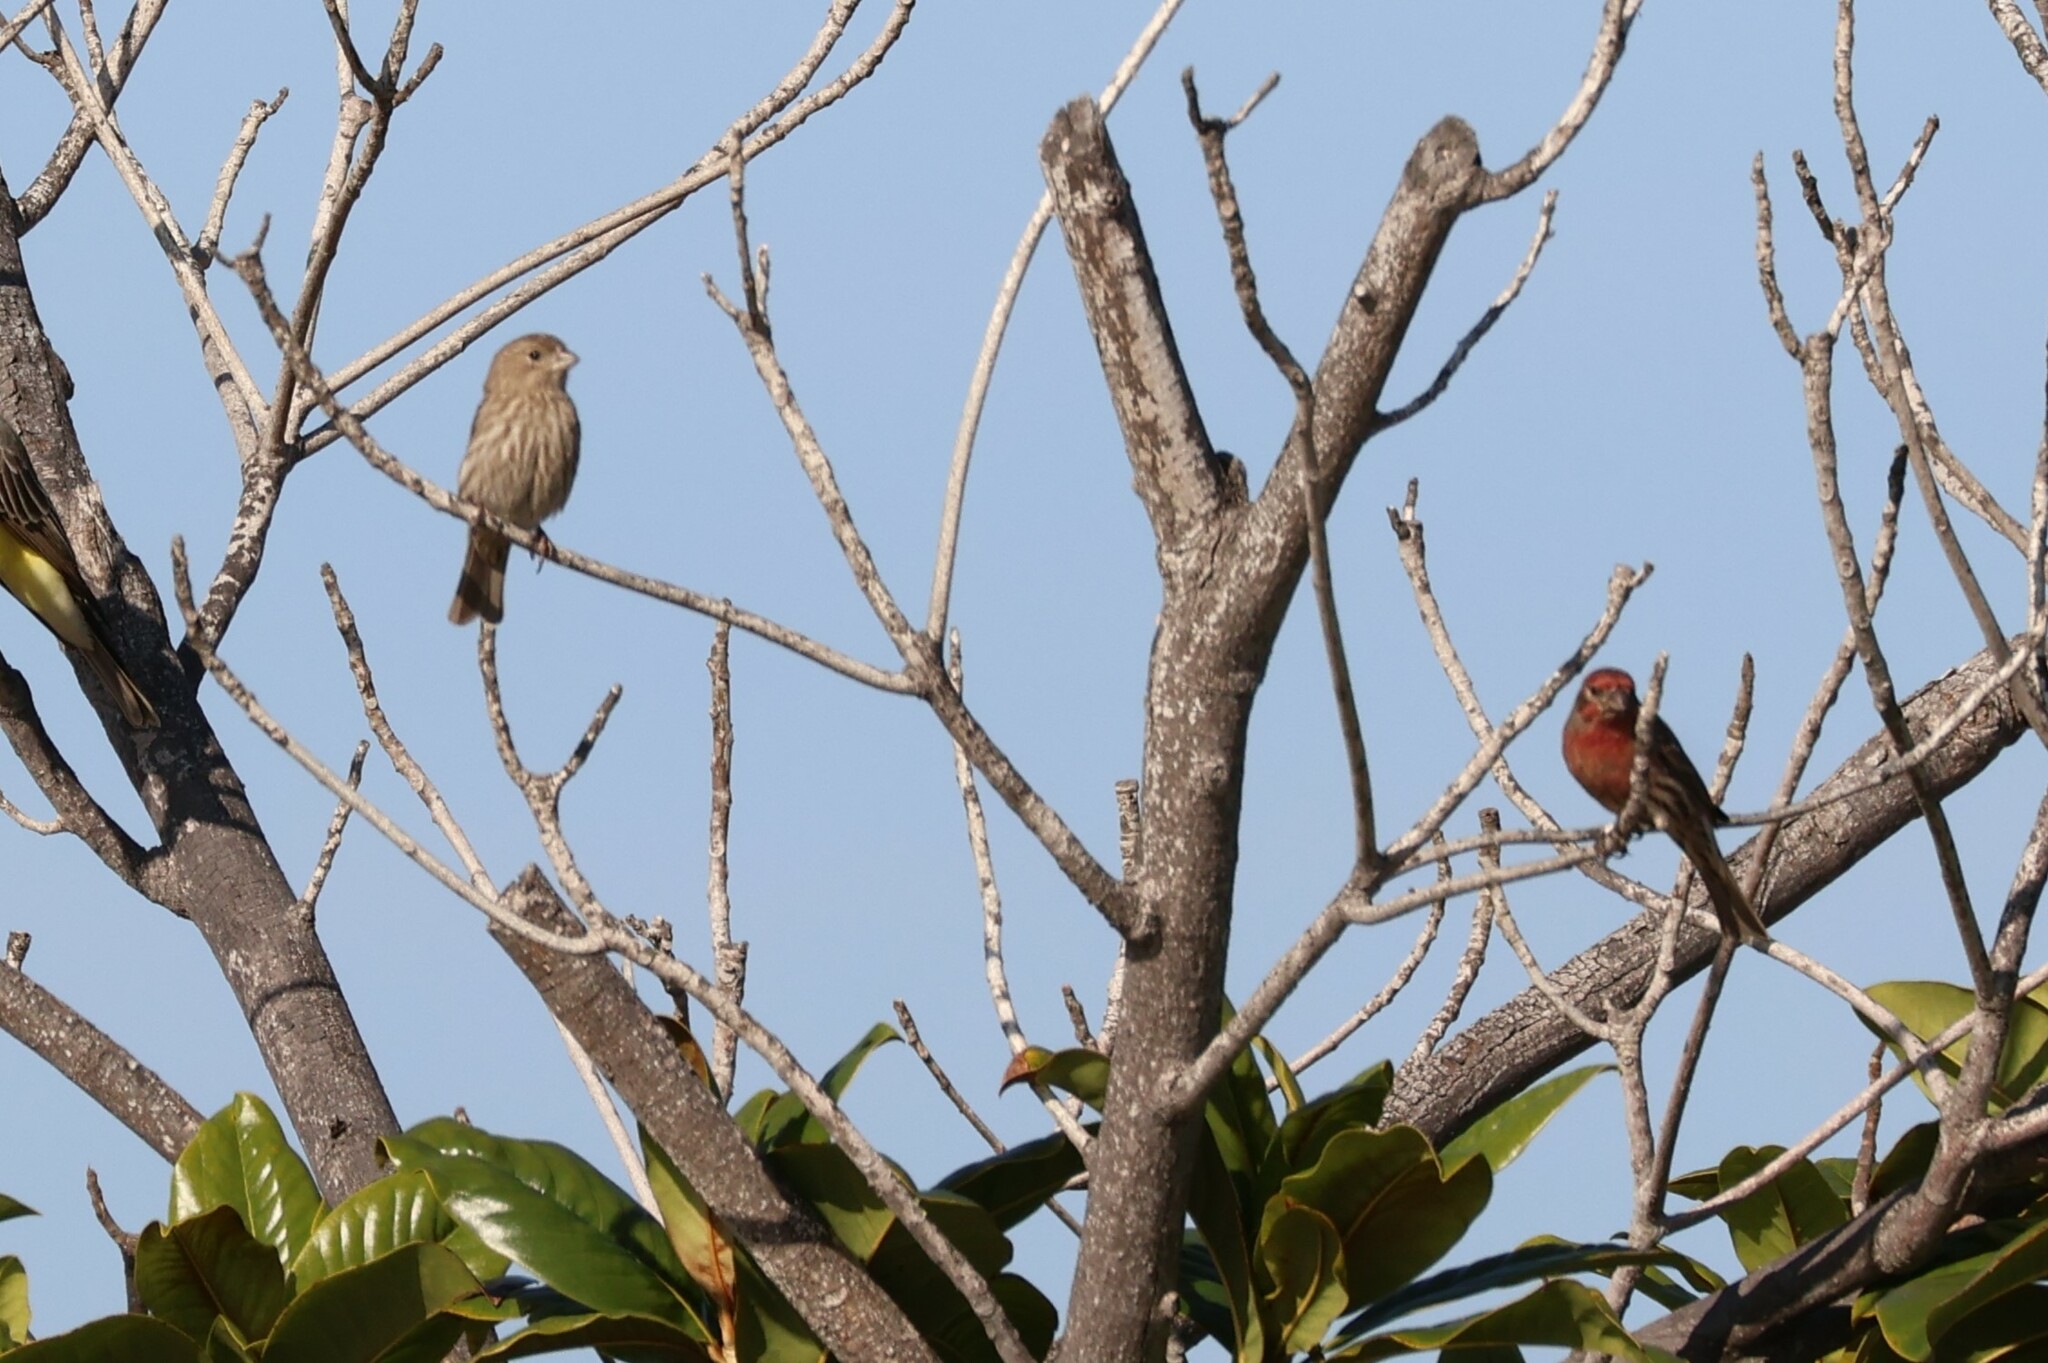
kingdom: Animalia
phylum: Chordata
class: Aves
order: Passeriformes
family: Fringillidae
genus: Haemorhous
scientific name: Haemorhous mexicanus
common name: House finch
